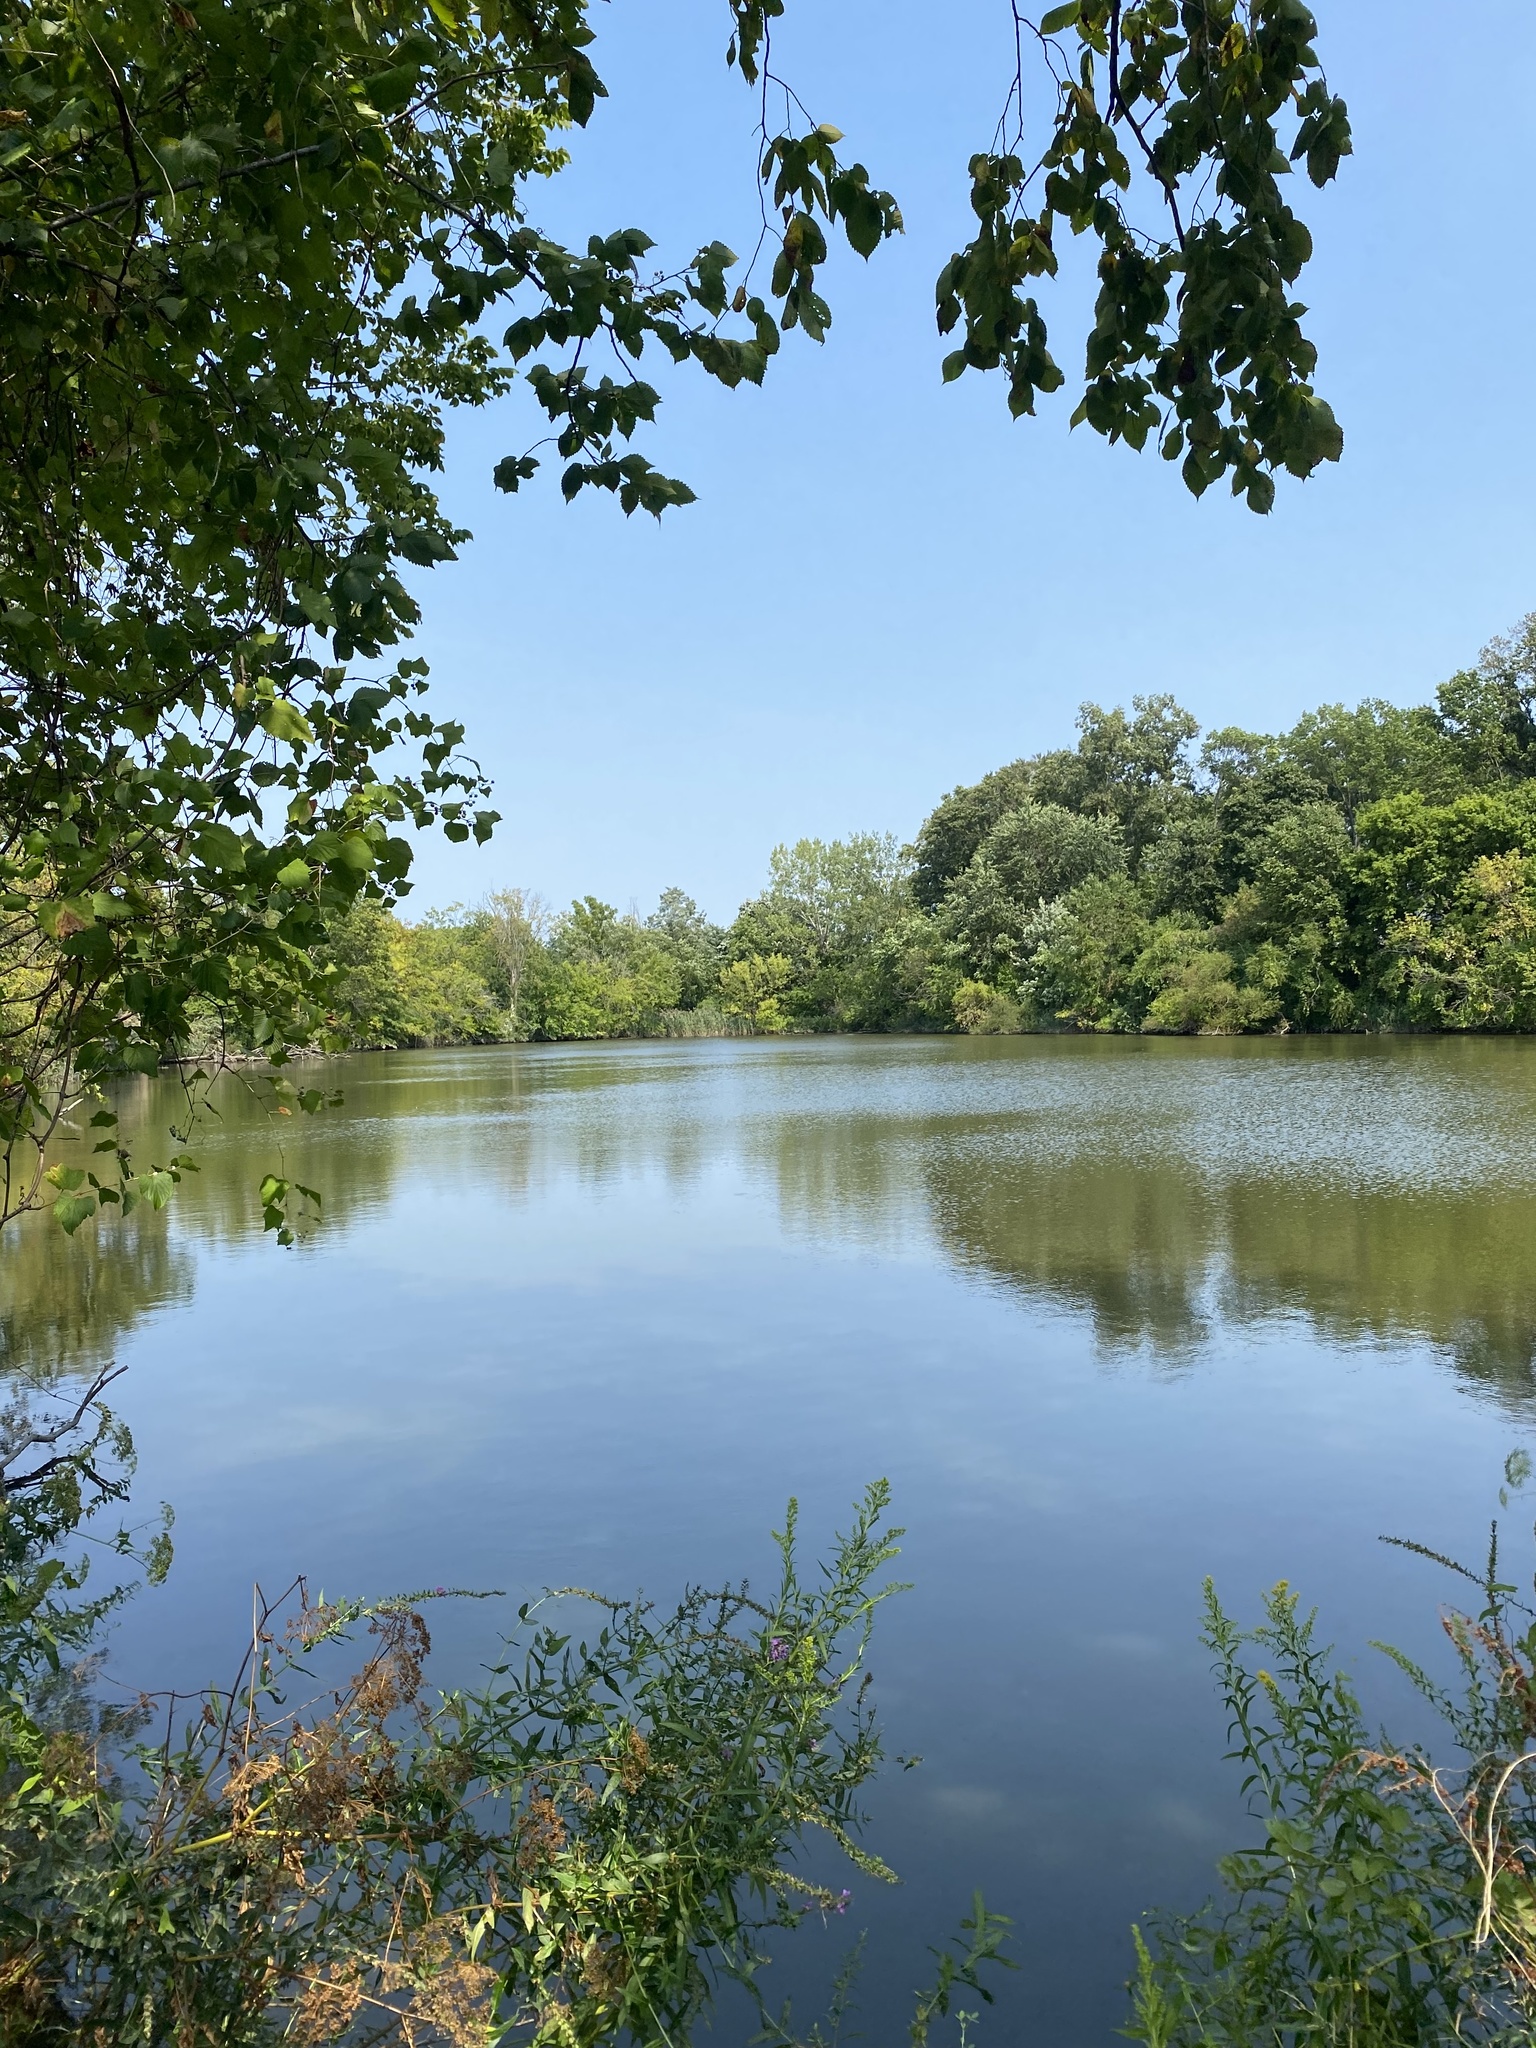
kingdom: Animalia
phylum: Chordata
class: Aves
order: Suliformes
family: Phalacrocoracidae
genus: Phalacrocorax
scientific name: Phalacrocorax auritus
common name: Double-crested cormorant
